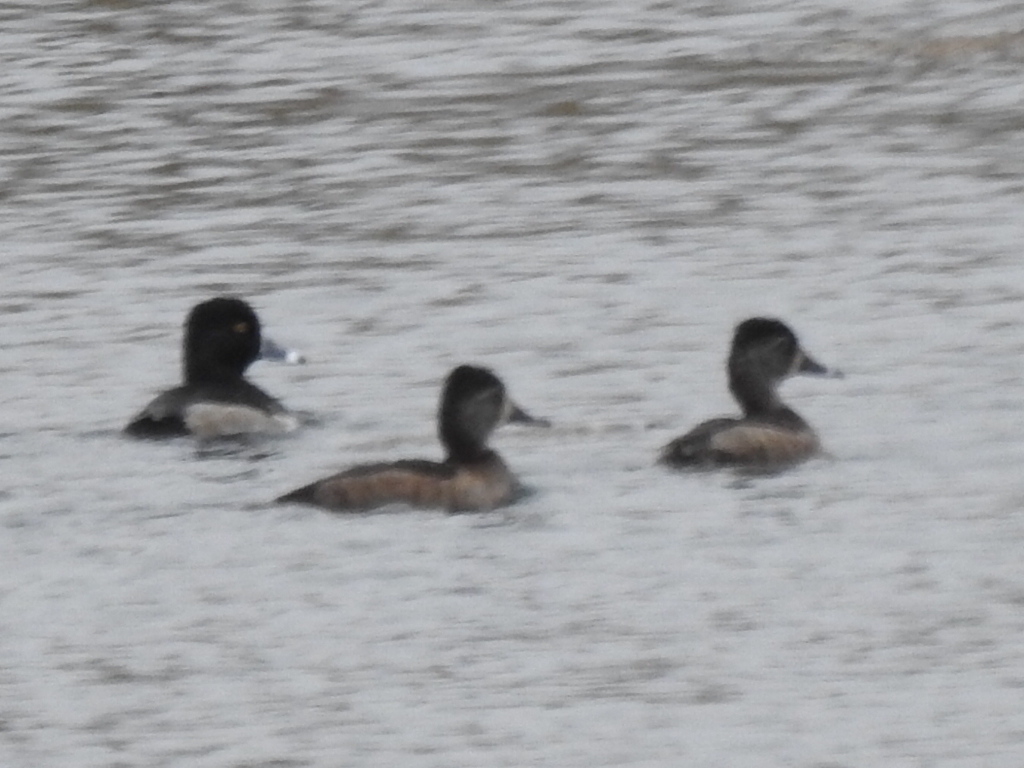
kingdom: Animalia
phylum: Chordata
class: Aves
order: Anseriformes
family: Anatidae
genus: Aythya
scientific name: Aythya collaris
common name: Ring-necked duck
